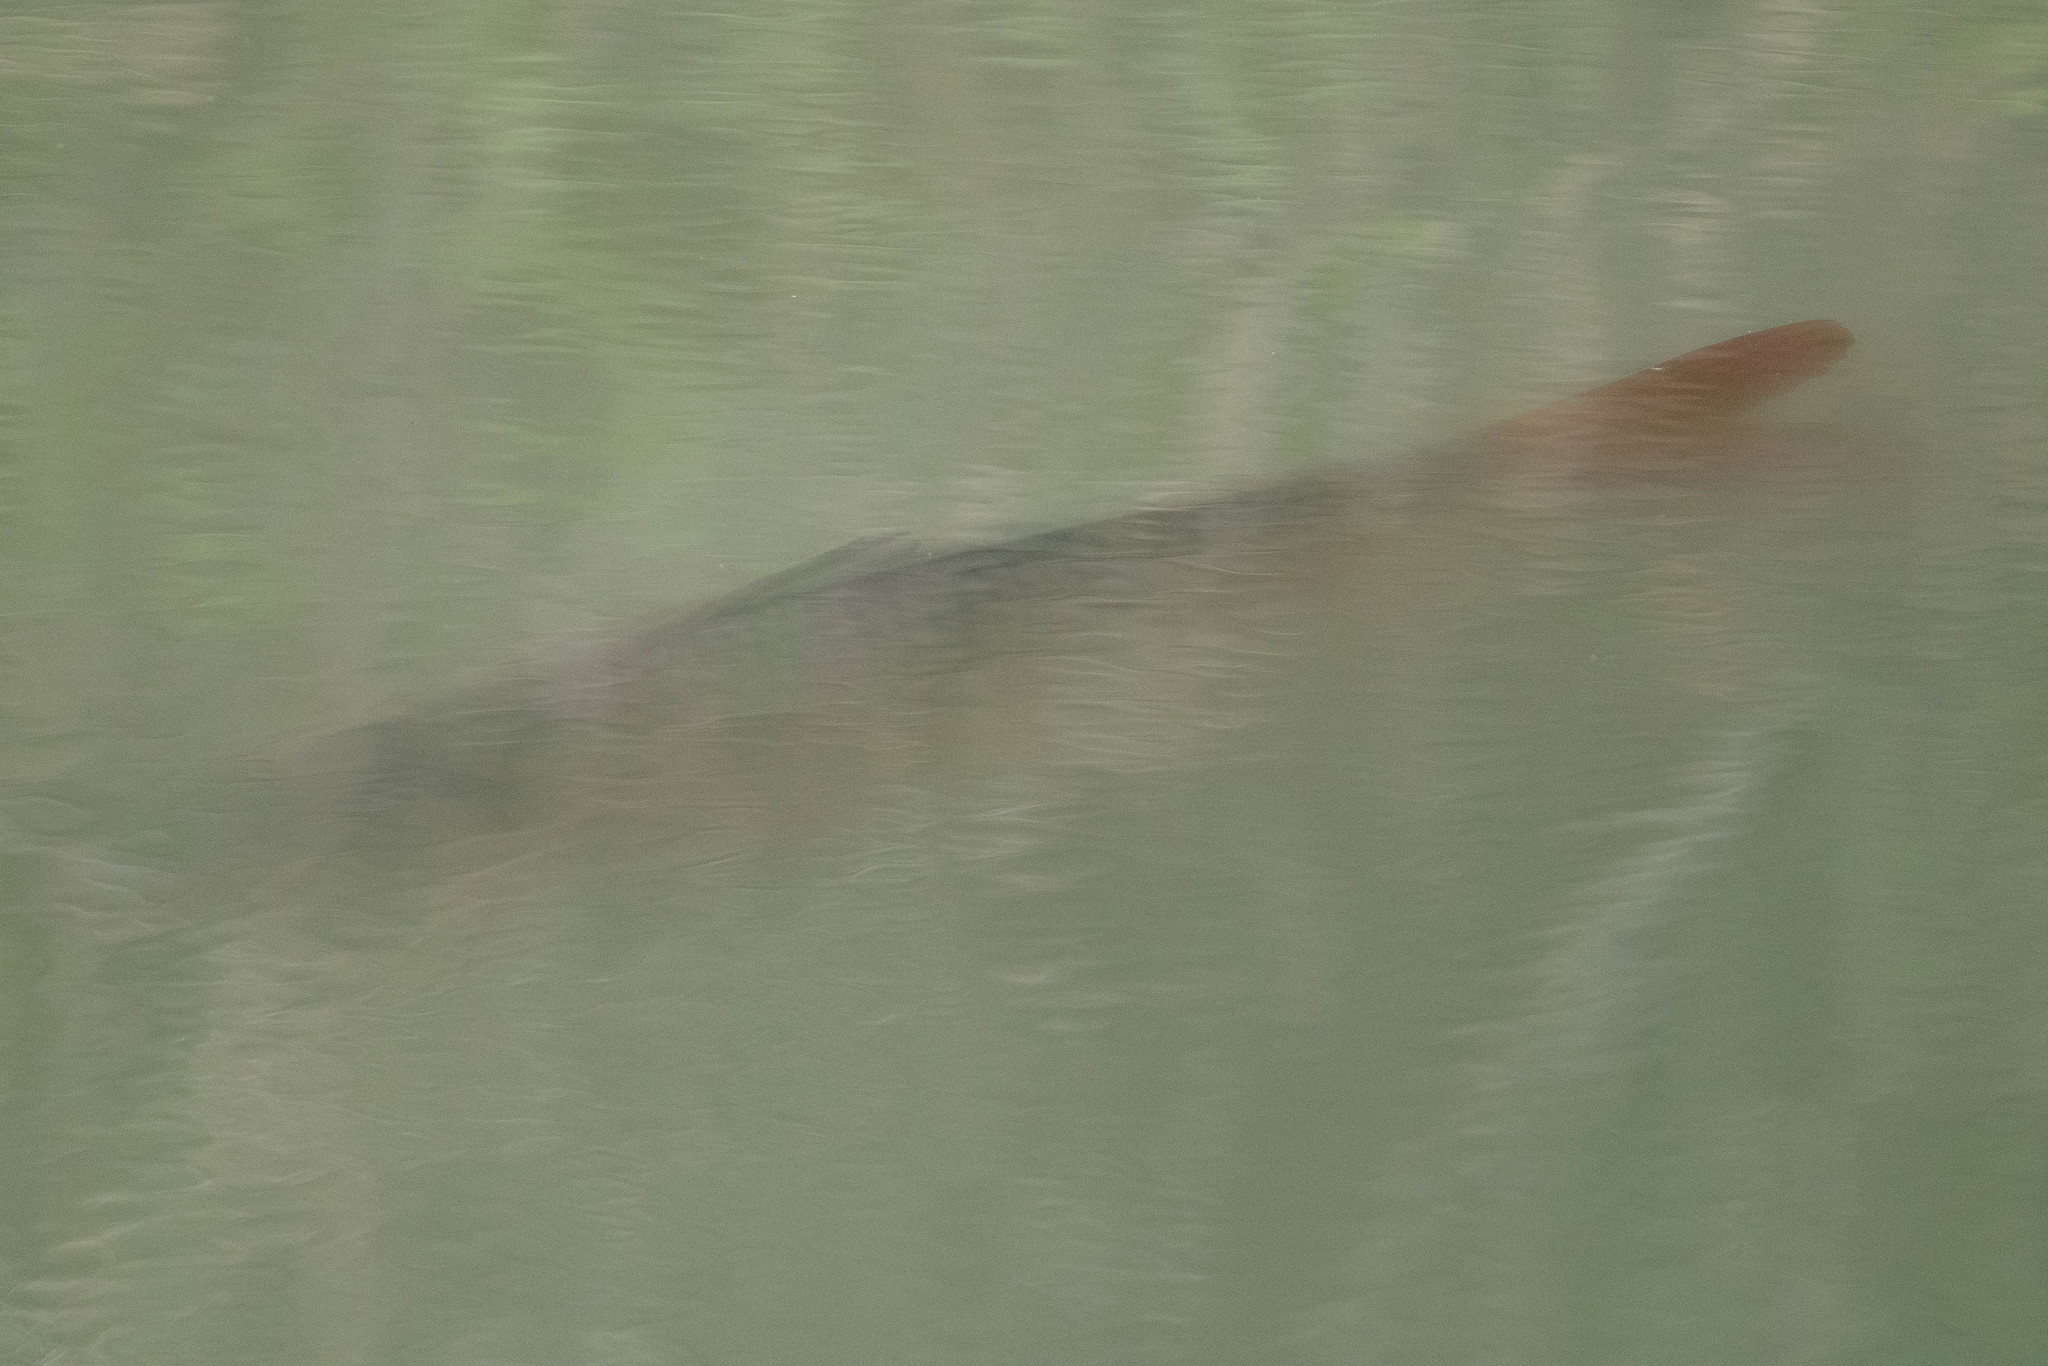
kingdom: Animalia
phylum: Chordata
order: Cypriniformes
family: Cyprinidae
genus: Cyprinus
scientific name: Cyprinus carpio
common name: Common carp
